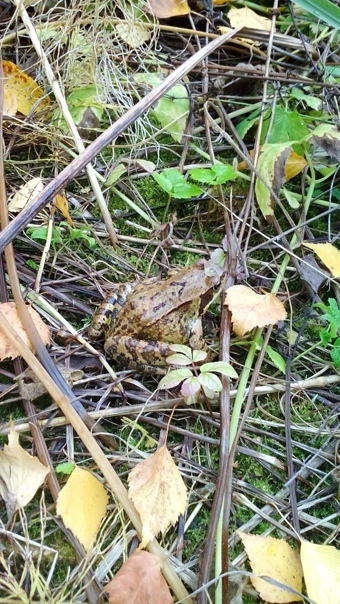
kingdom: Animalia
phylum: Chordata
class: Amphibia
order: Anura
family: Ranidae
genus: Rana
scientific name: Rana temporaria
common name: Common frog
